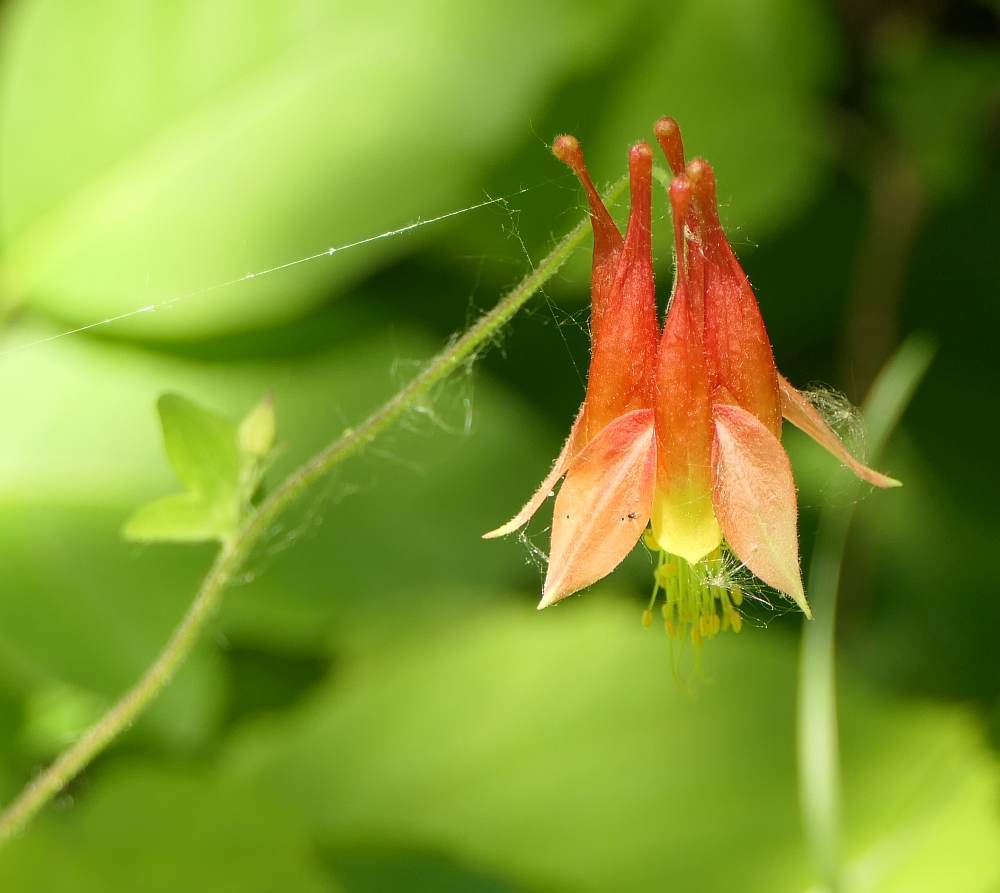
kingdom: Plantae
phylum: Tracheophyta
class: Magnoliopsida
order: Ranunculales
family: Ranunculaceae
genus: Aquilegia
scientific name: Aquilegia canadensis
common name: American columbine
